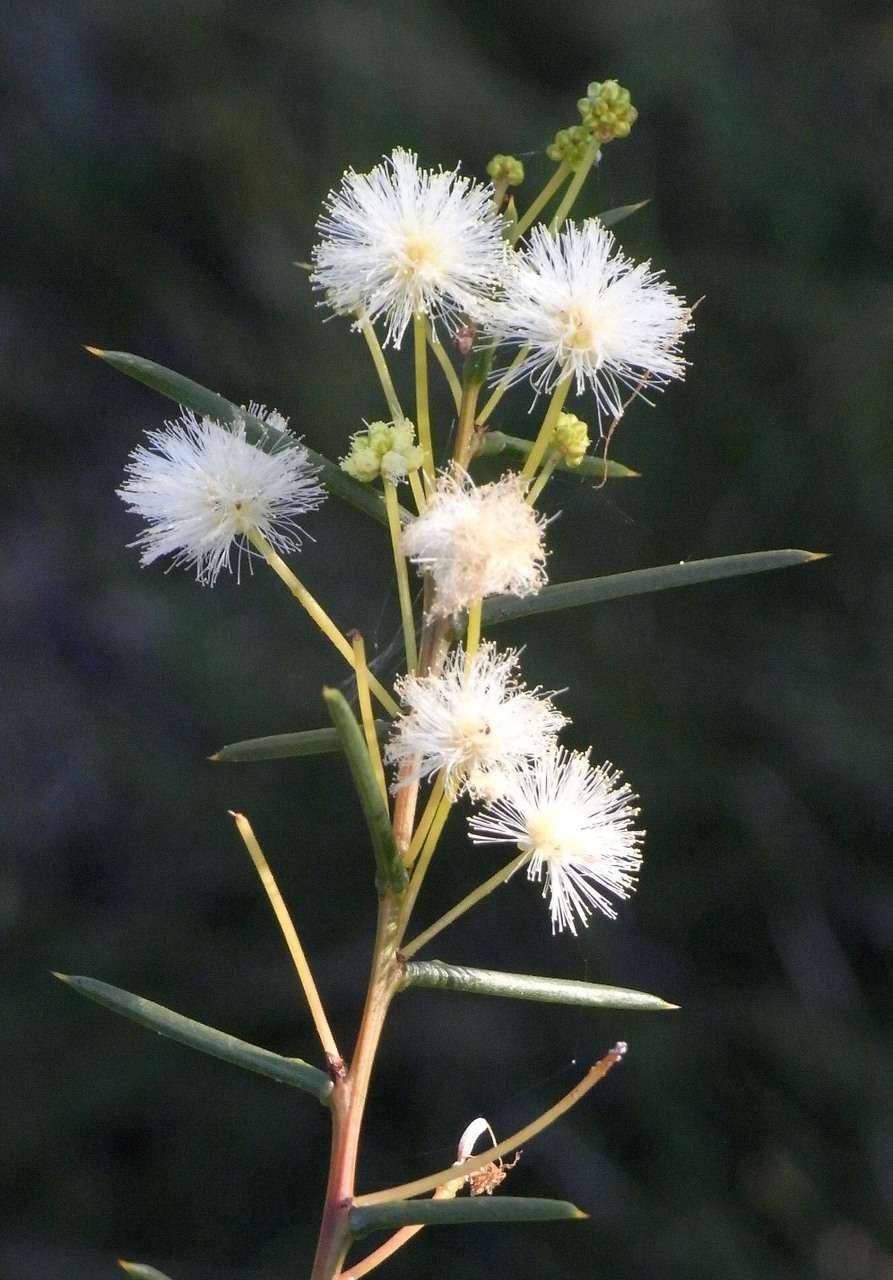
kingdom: Plantae
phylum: Tracheophyta
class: Magnoliopsida
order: Fabales
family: Fabaceae
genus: Acacia
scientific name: Acacia genistifolia
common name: Early wattle
